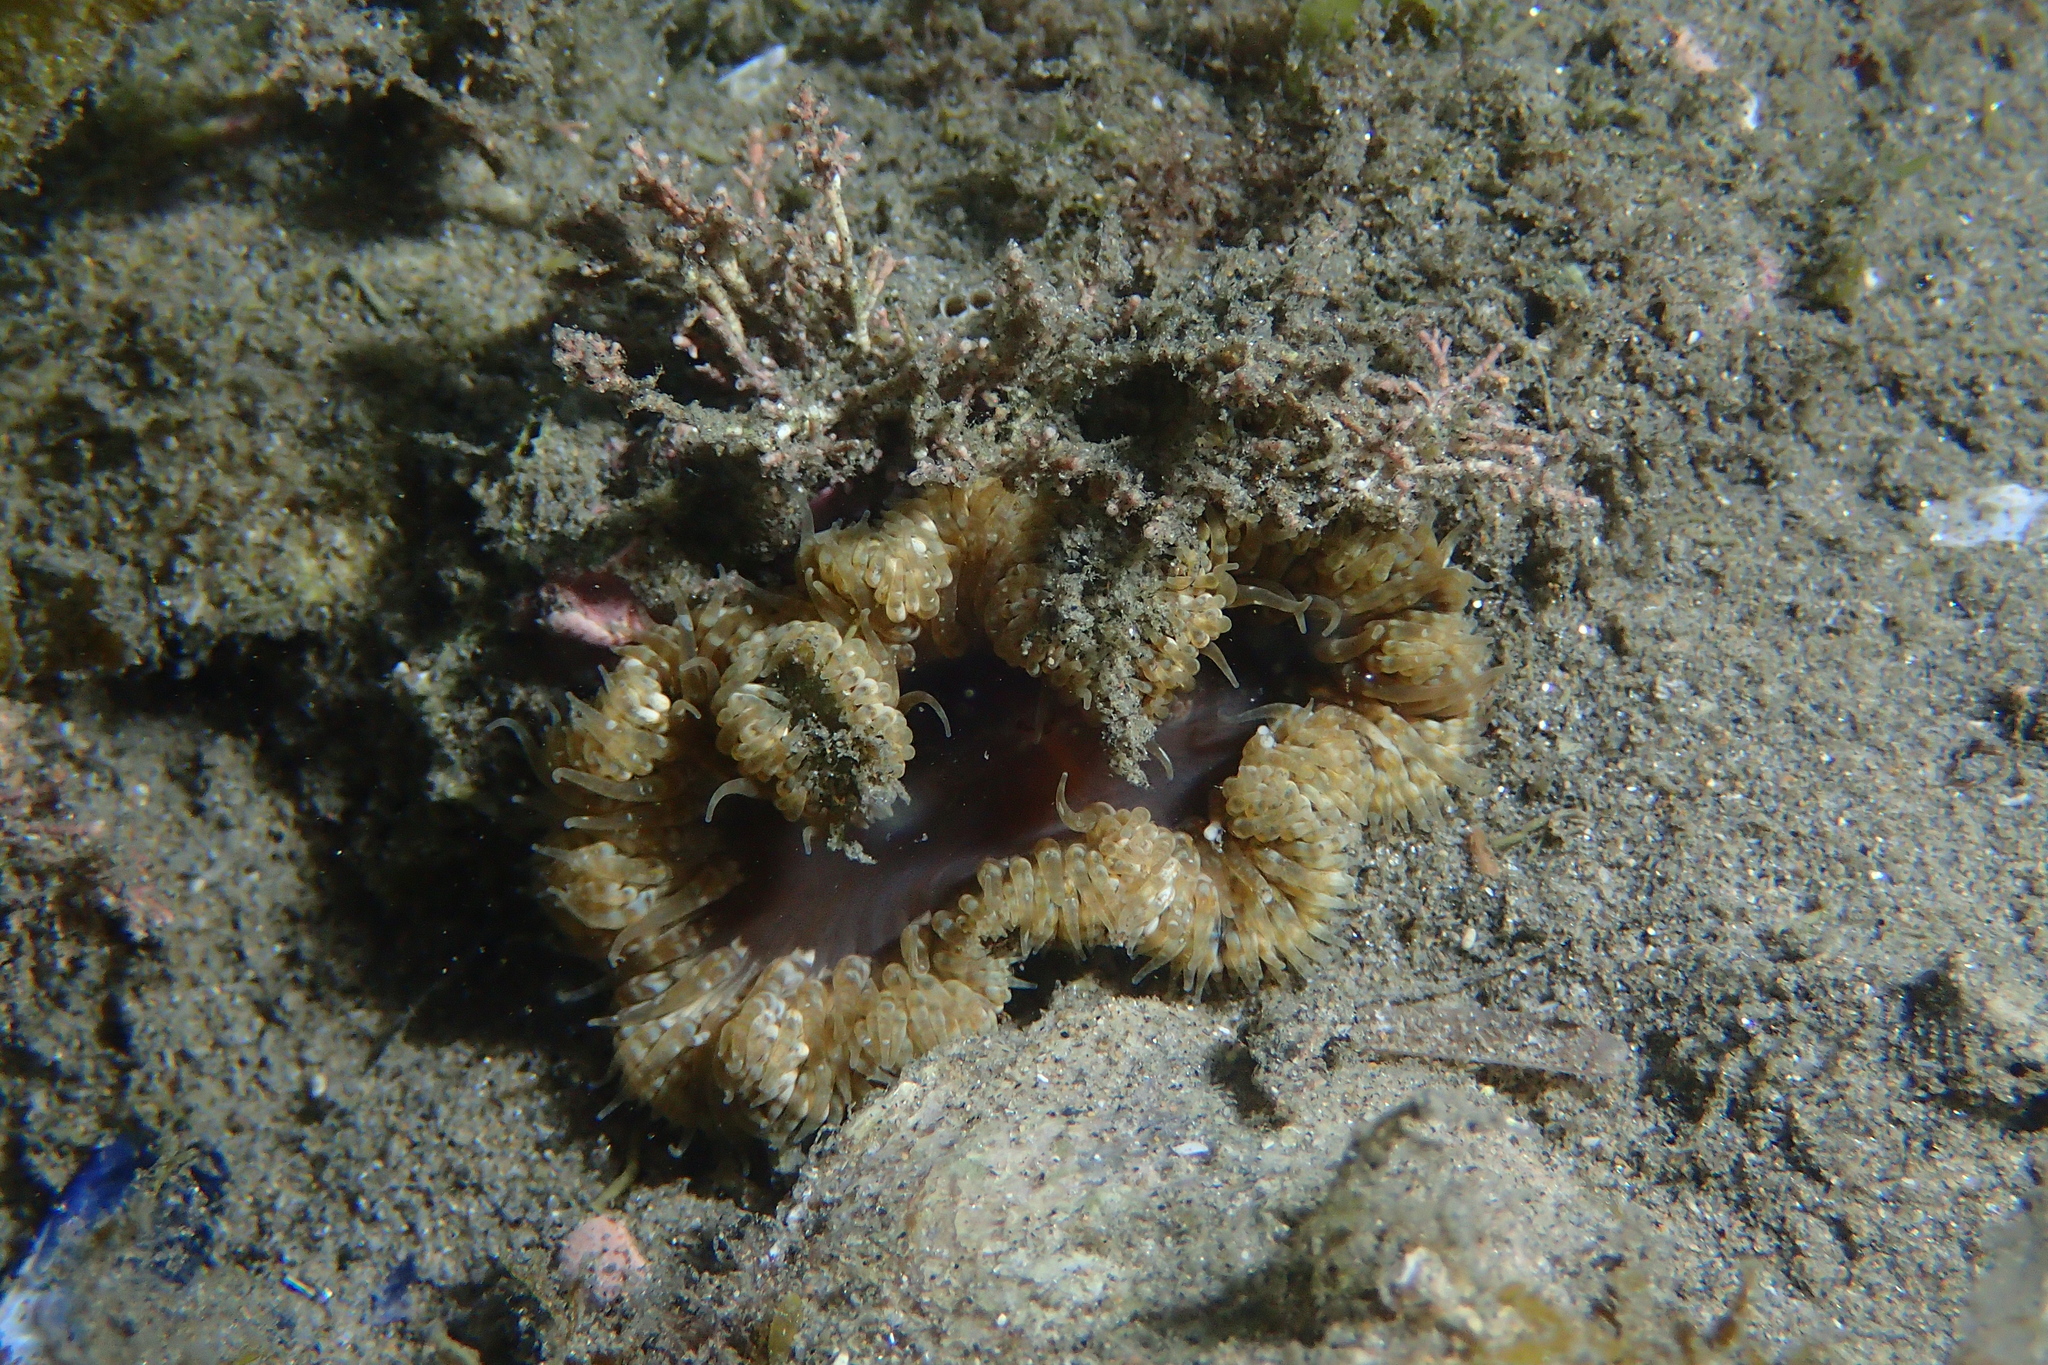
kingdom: Animalia
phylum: Cnidaria
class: Anthozoa
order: Actiniaria
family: Sagartiidae
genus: Cereus
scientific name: Cereus pedunculatus
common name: Daisy anemone
